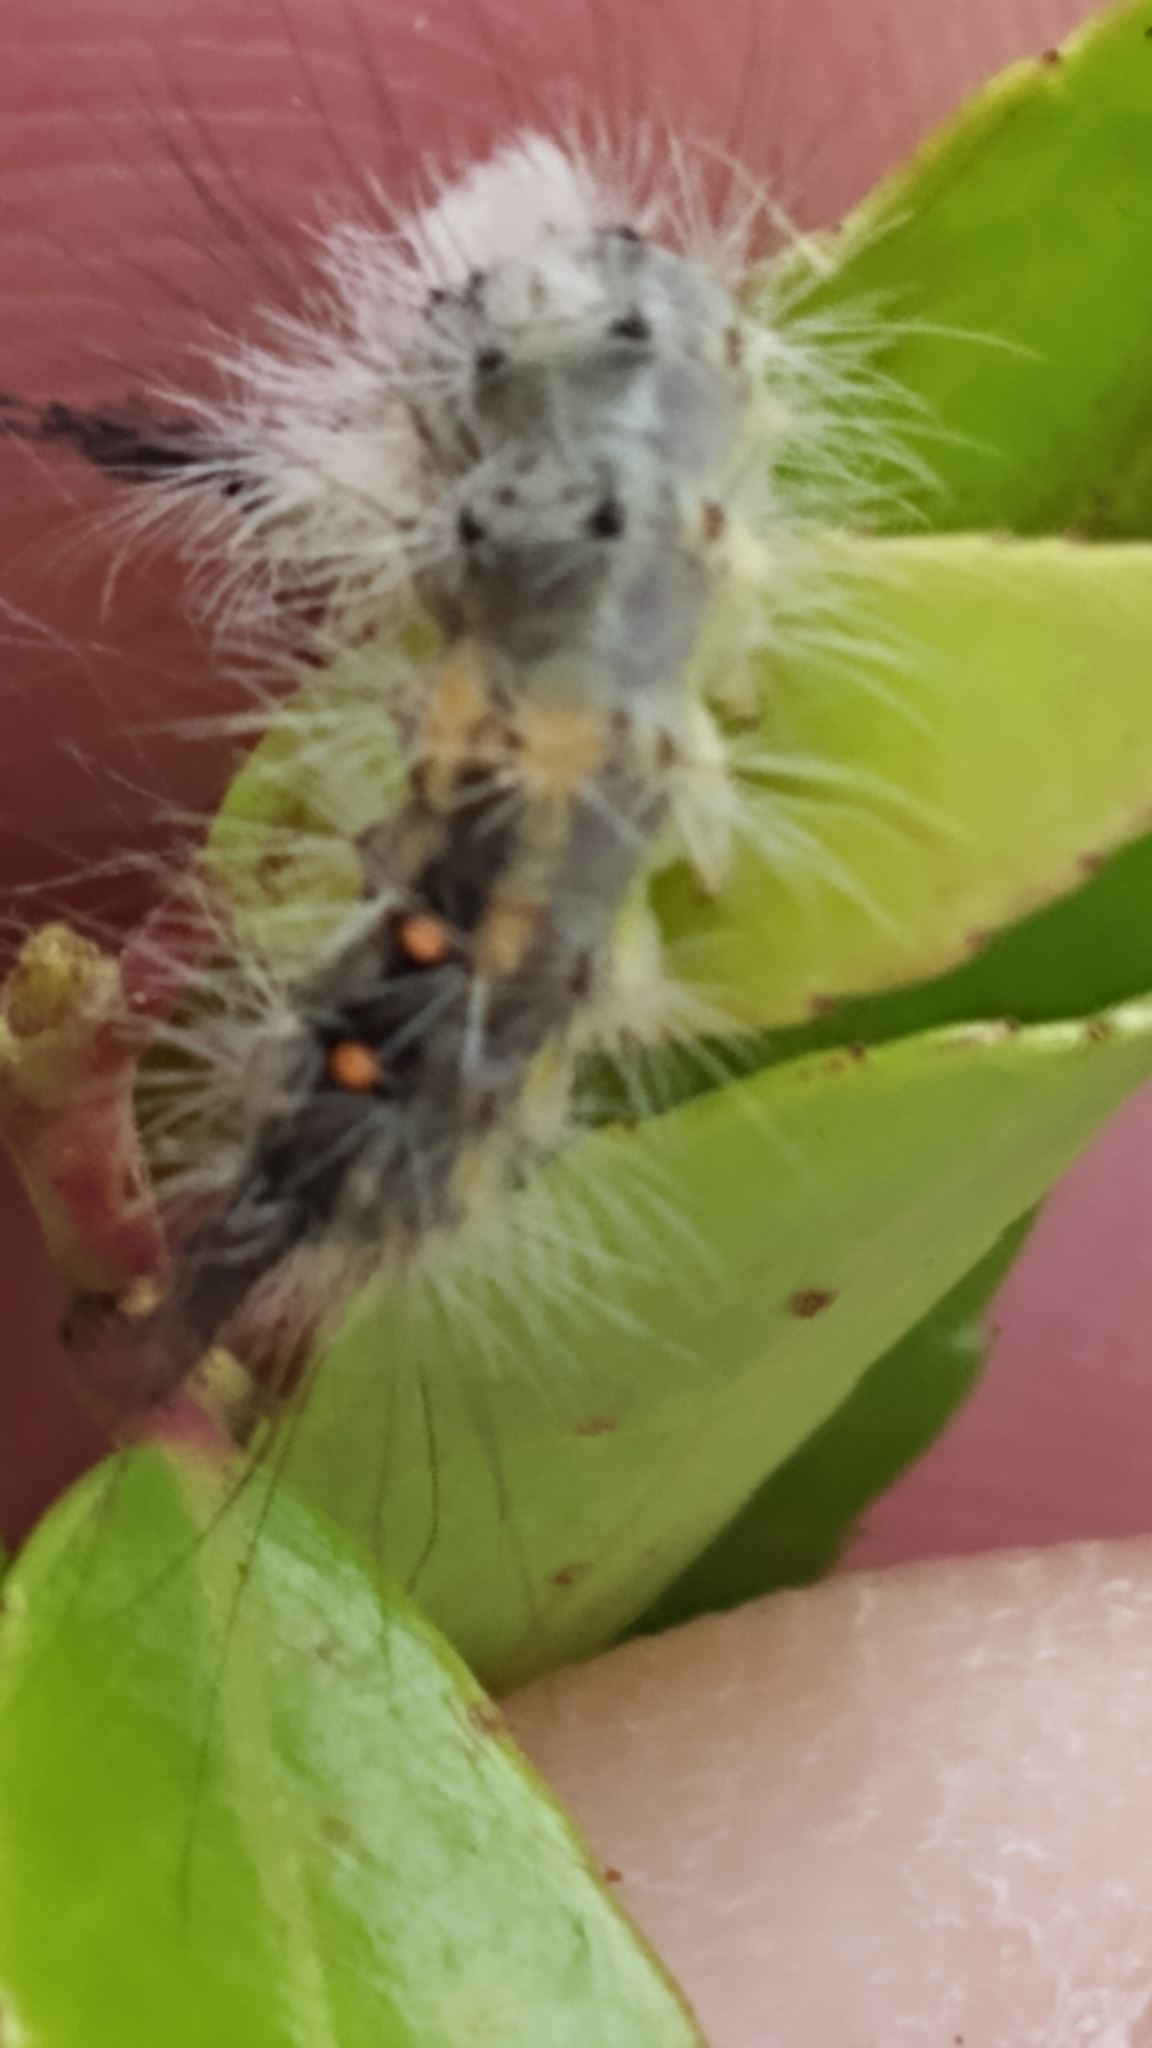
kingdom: Animalia
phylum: Arthropoda
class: Insecta
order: Lepidoptera
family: Erebidae
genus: Orgyia
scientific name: Orgyia detrita
